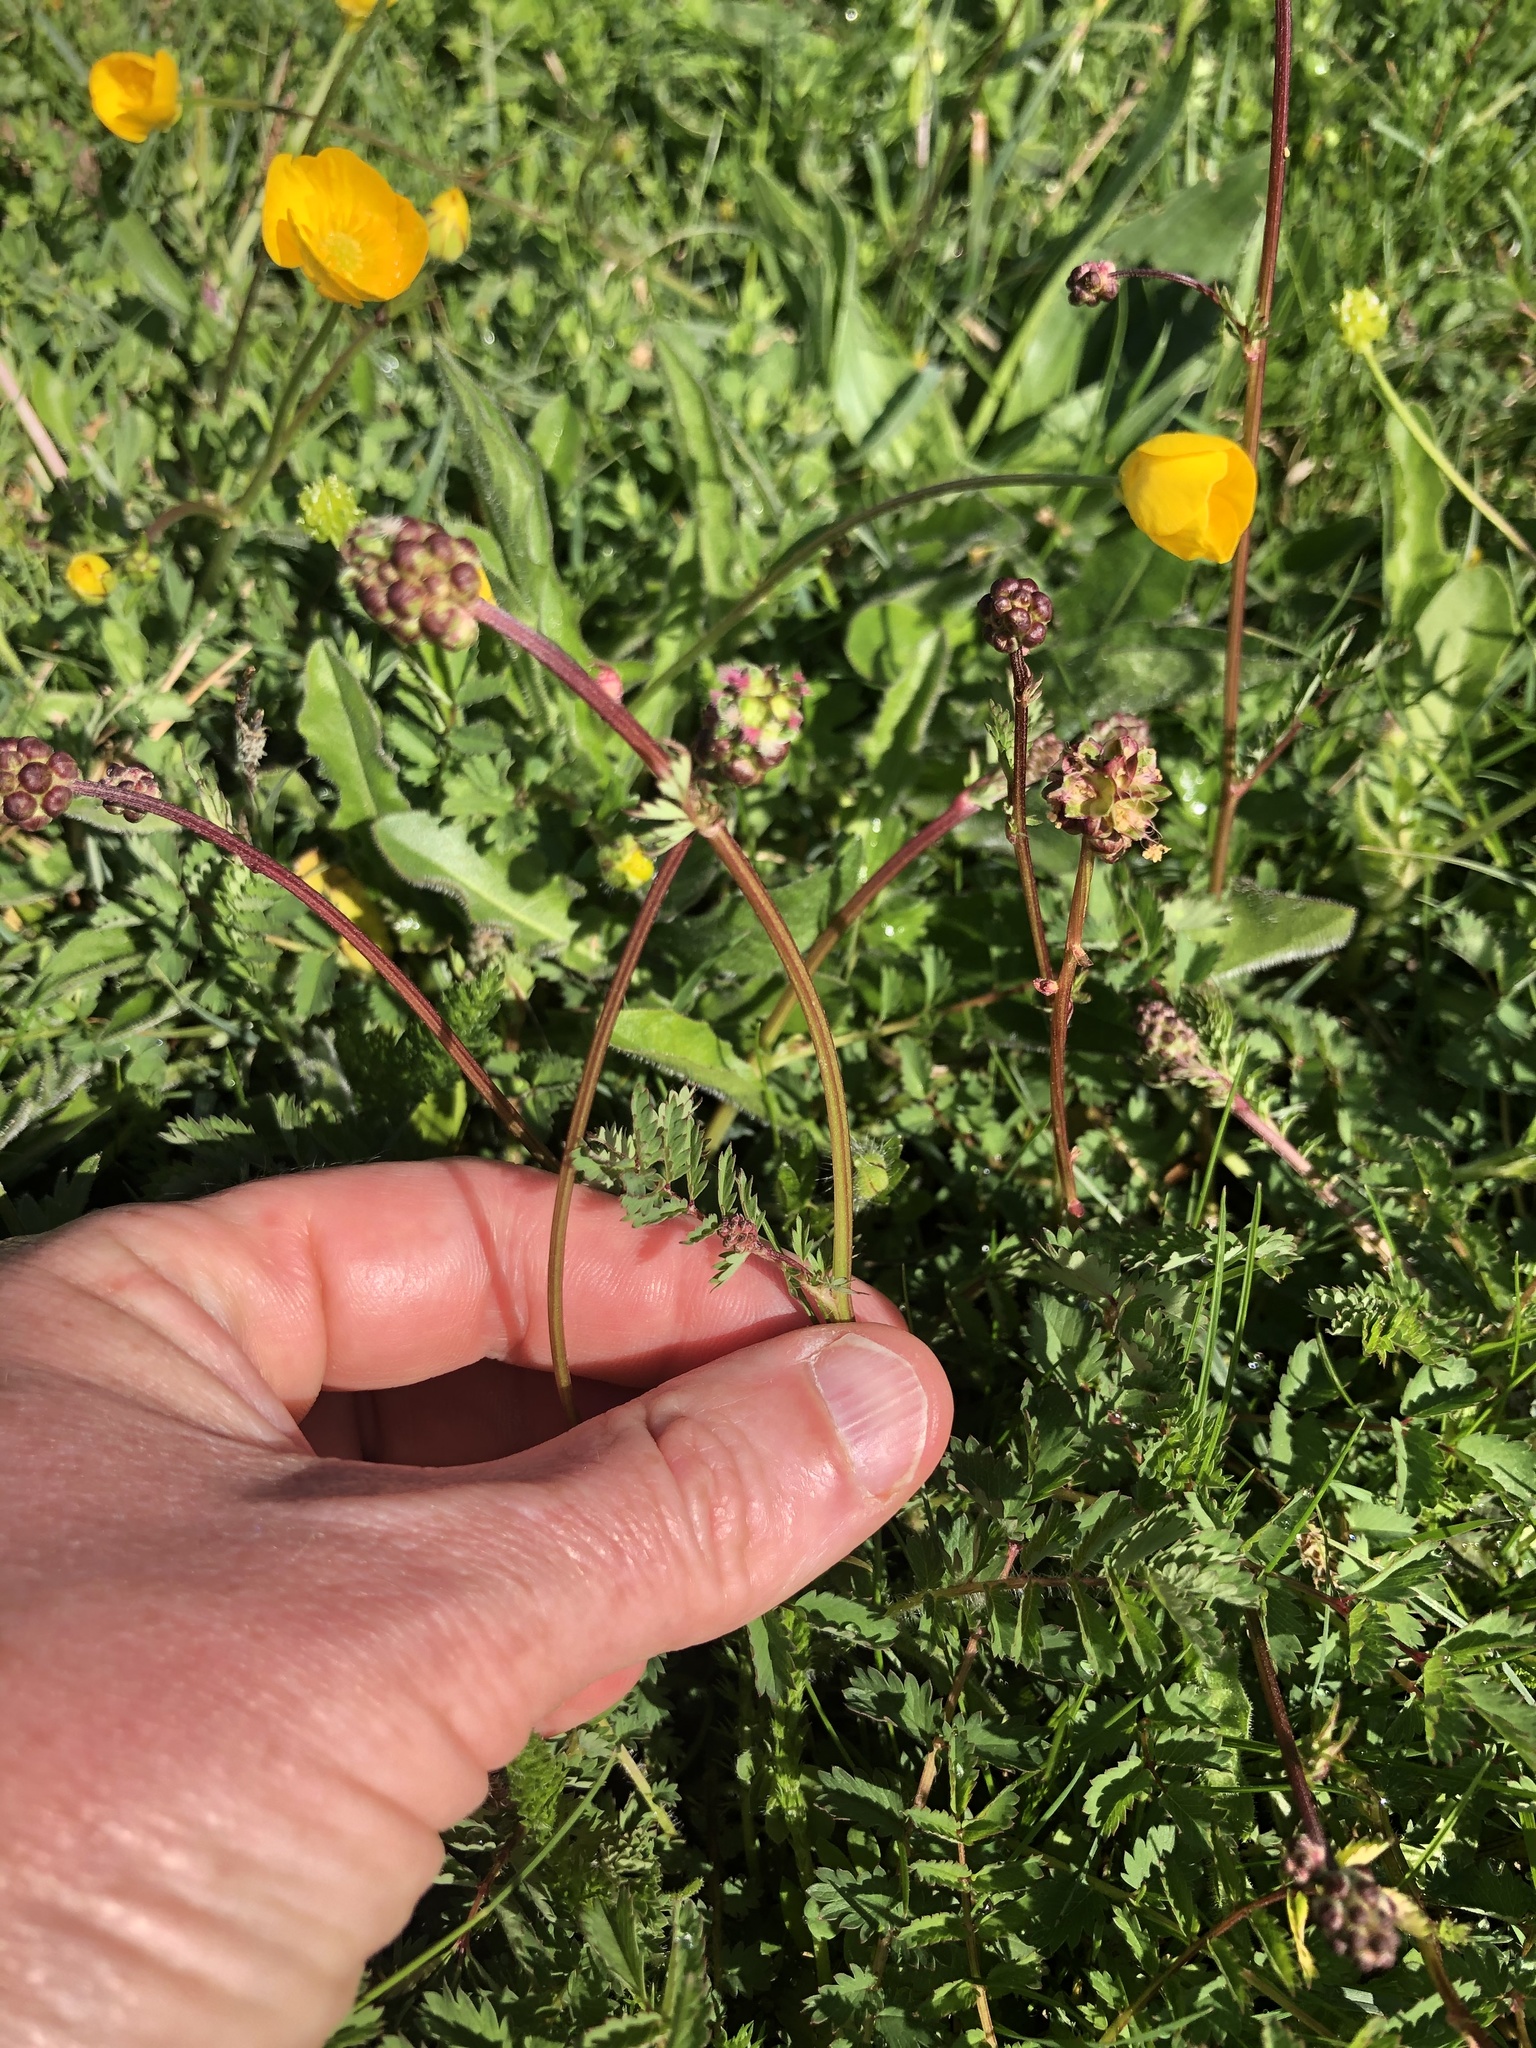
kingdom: Plantae
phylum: Tracheophyta
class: Magnoliopsida
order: Rosales
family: Rosaceae
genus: Poterium
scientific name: Poterium sanguisorba
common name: Salad burnet
